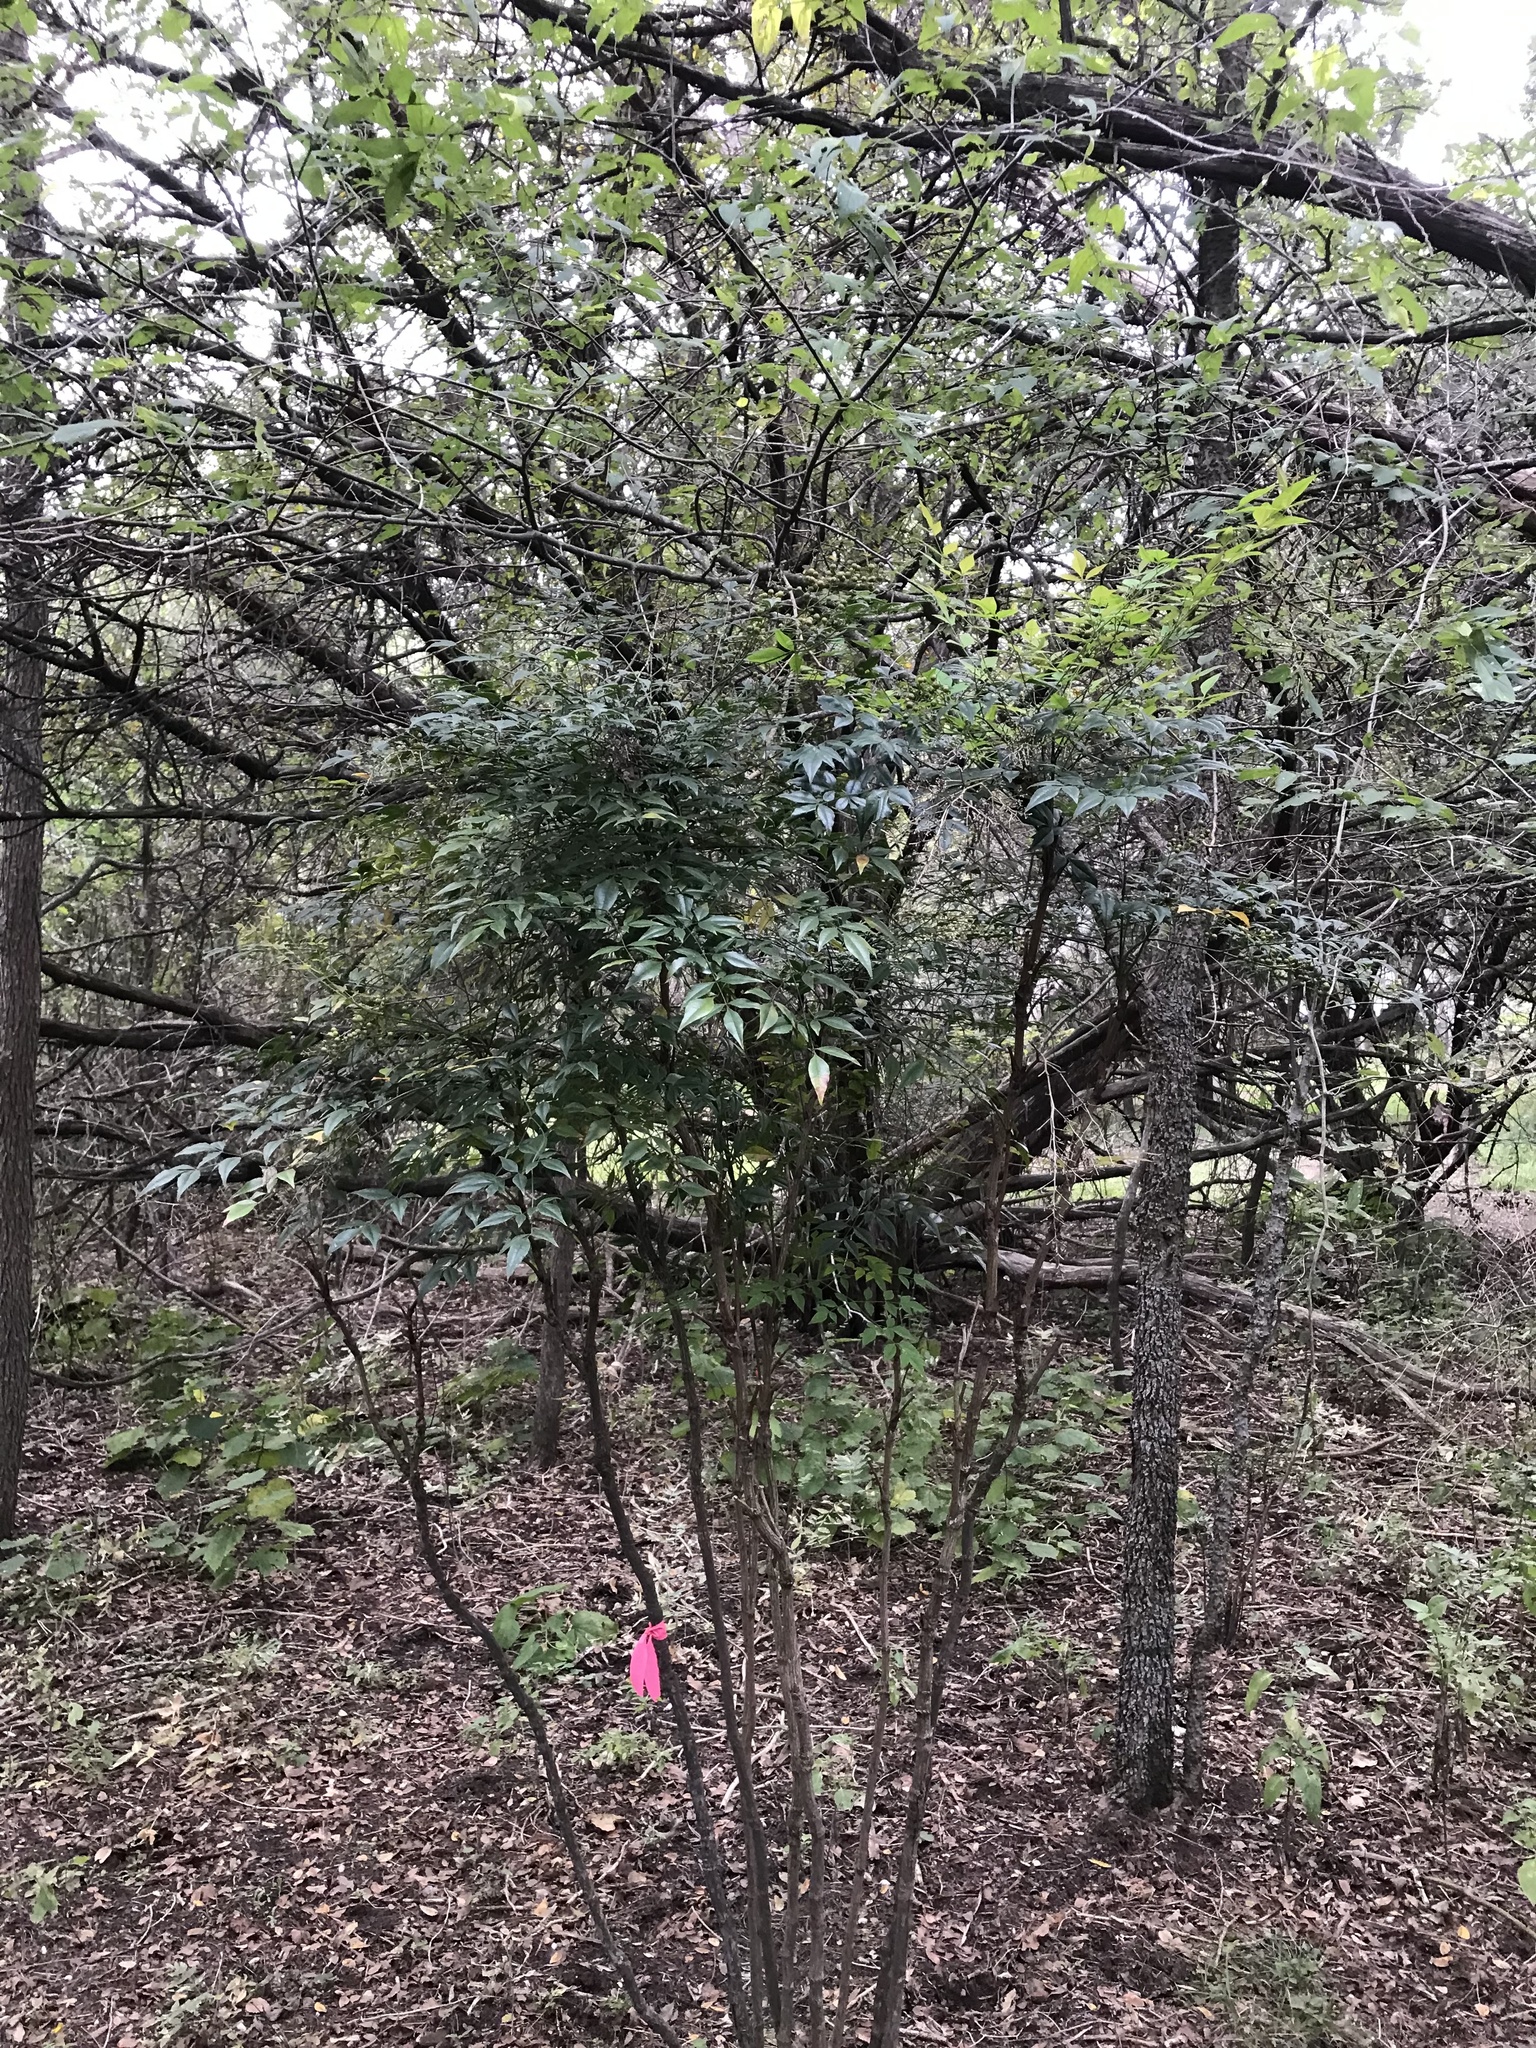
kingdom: Plantae
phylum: Tracheophyta
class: Magnoliopsida
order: Ranunculales
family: Berberidaceae
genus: Nandina
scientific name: Nandina domestica
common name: Sacred bamboo
